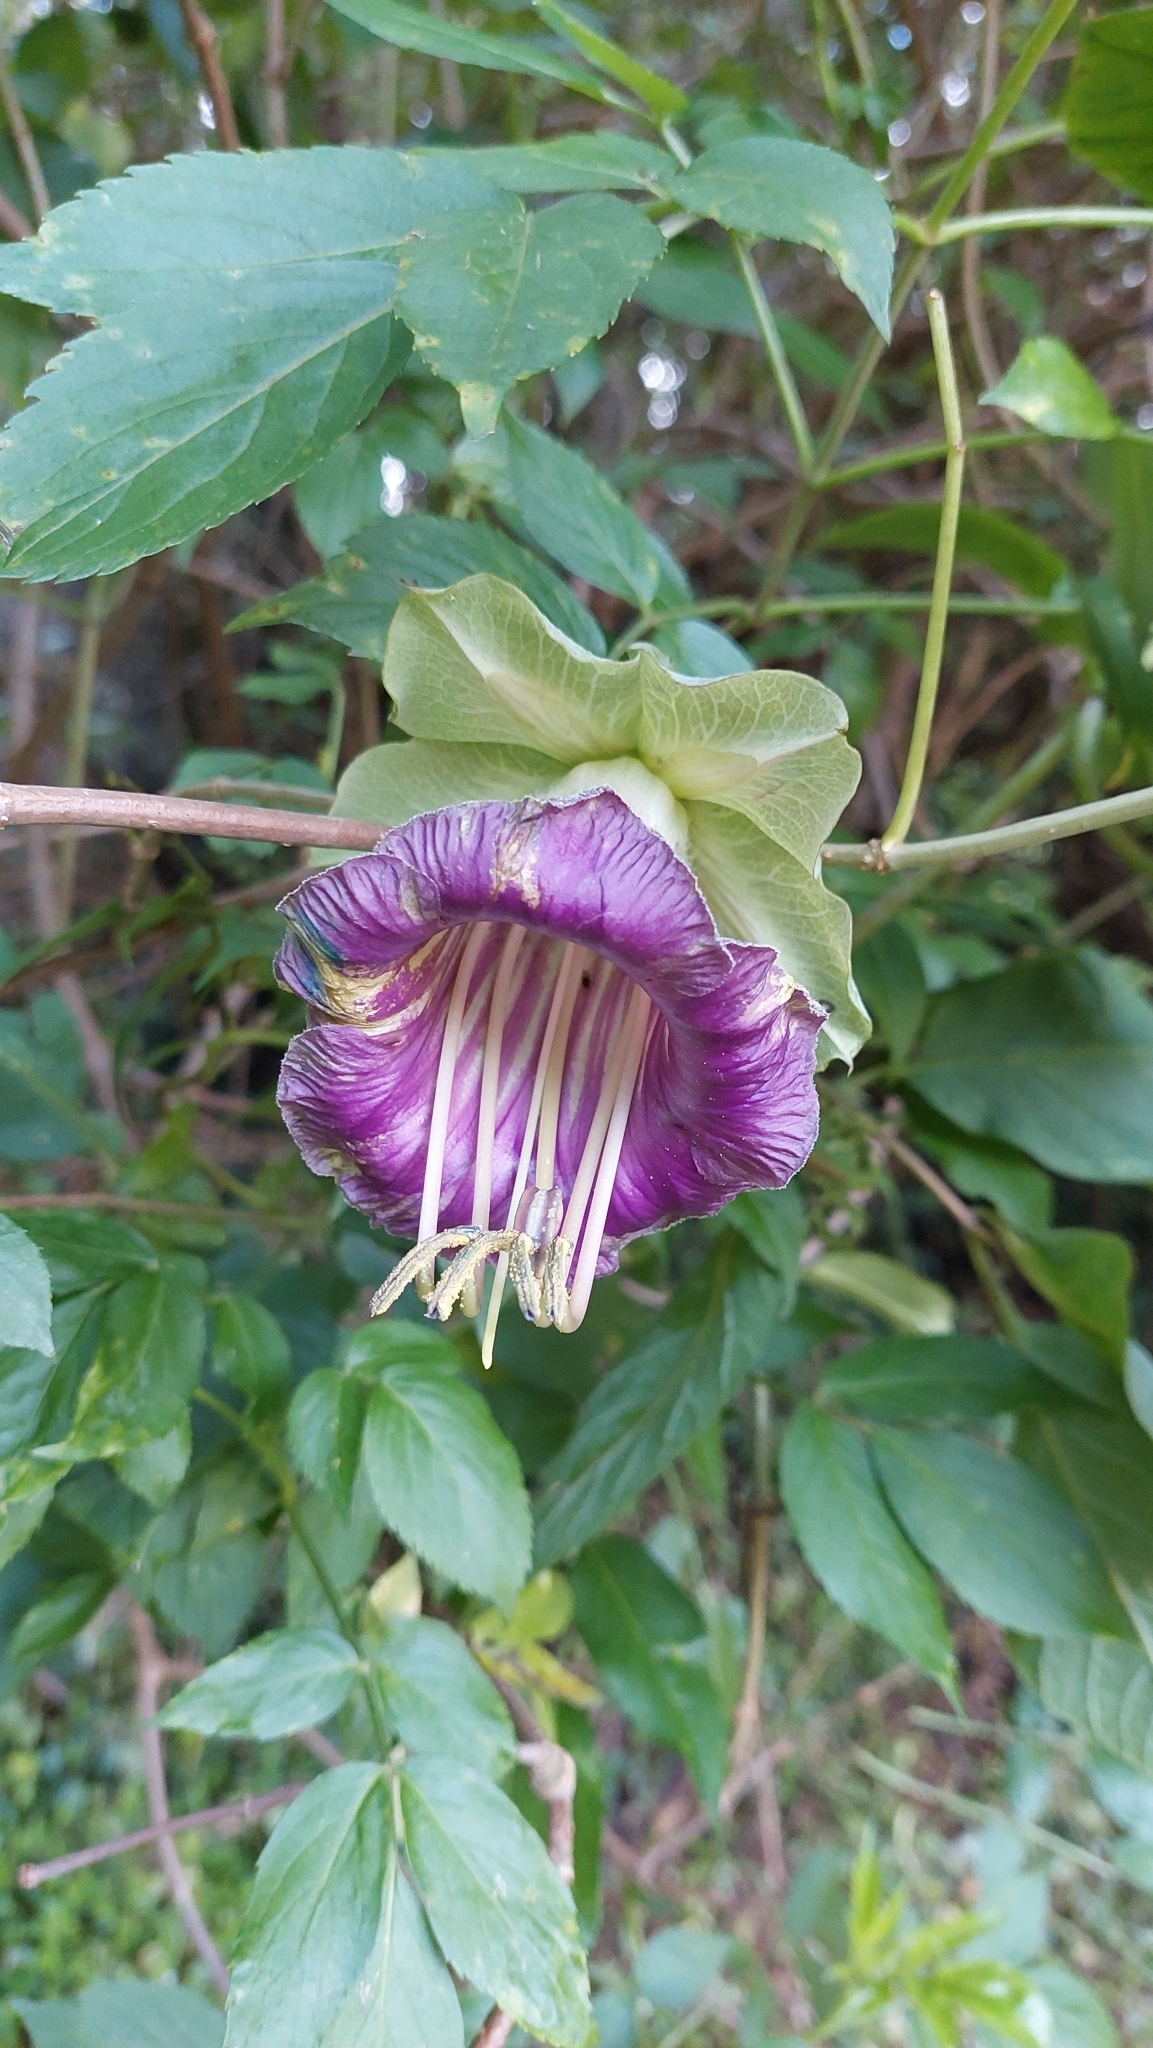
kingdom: Plantae
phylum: Tracheophyta
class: Magnoliopsida
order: Ericales
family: Polemoniaceae
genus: Cobaea
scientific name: Cobaea scandens
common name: Cup-and-saucer-vine
